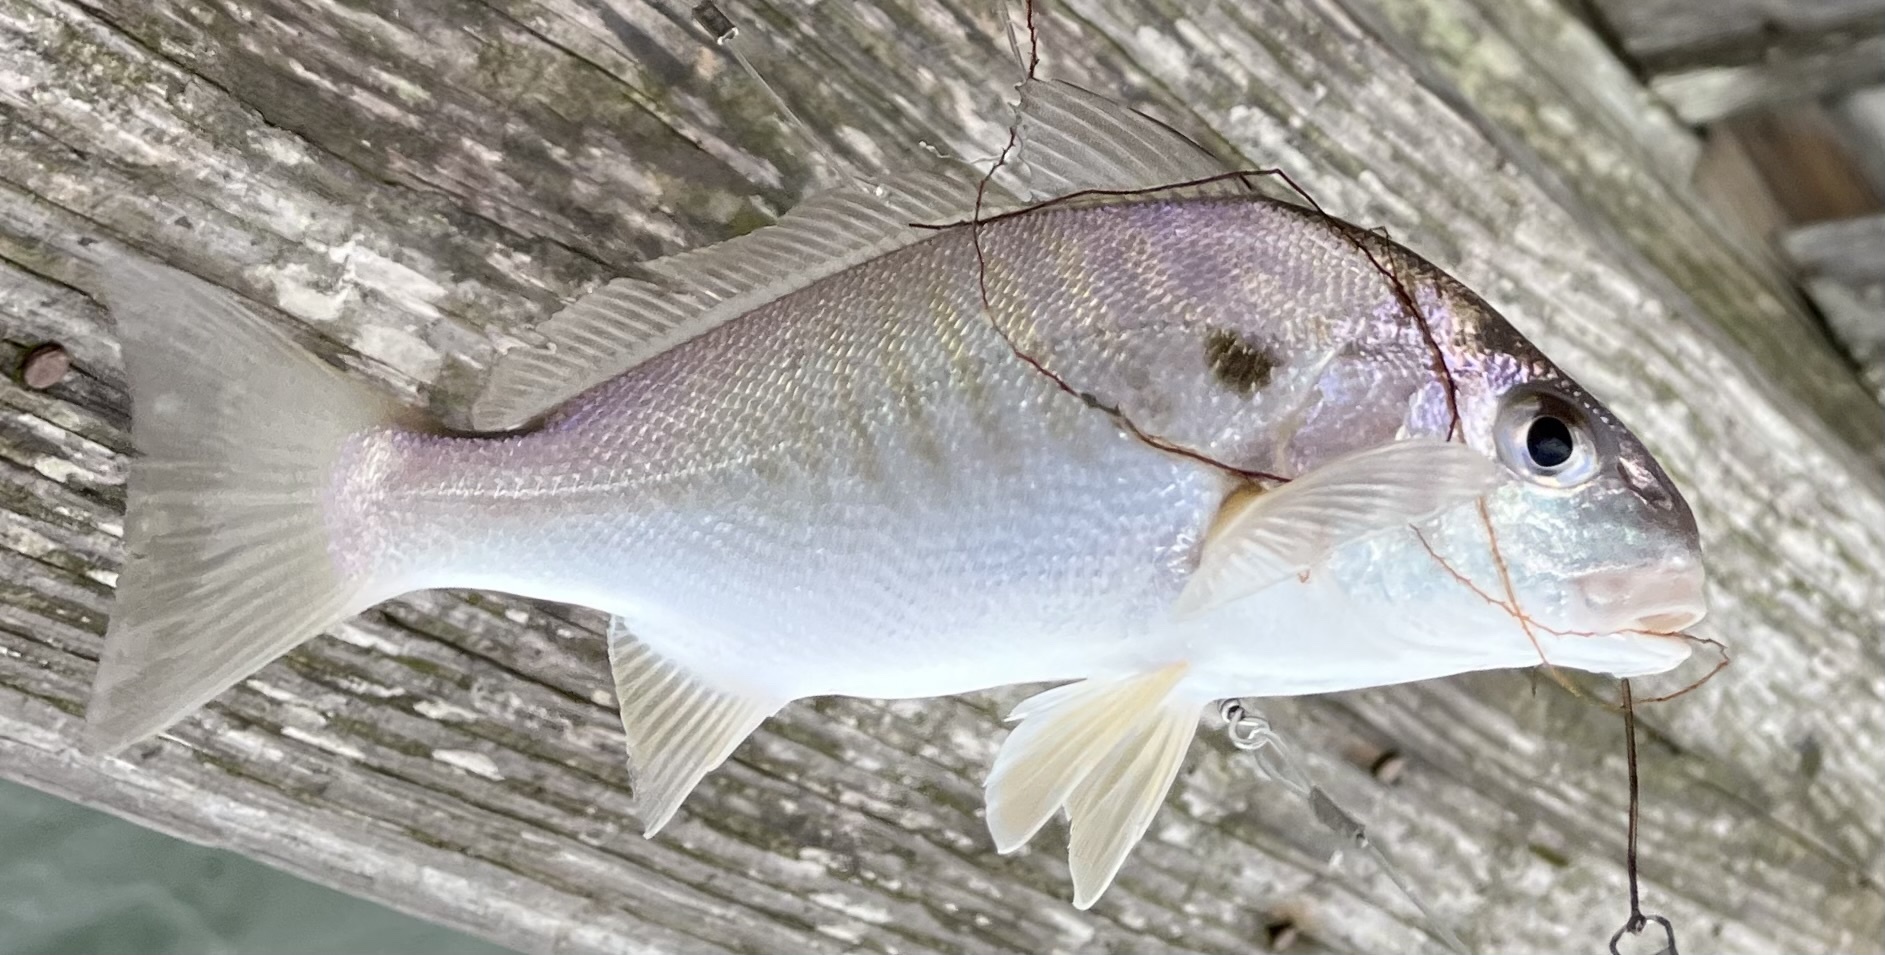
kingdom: Animalia
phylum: Chordata
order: Perciformes
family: Sciaenidae
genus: Leiostomus
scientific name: Leiostomus xanthurus
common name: Spot
